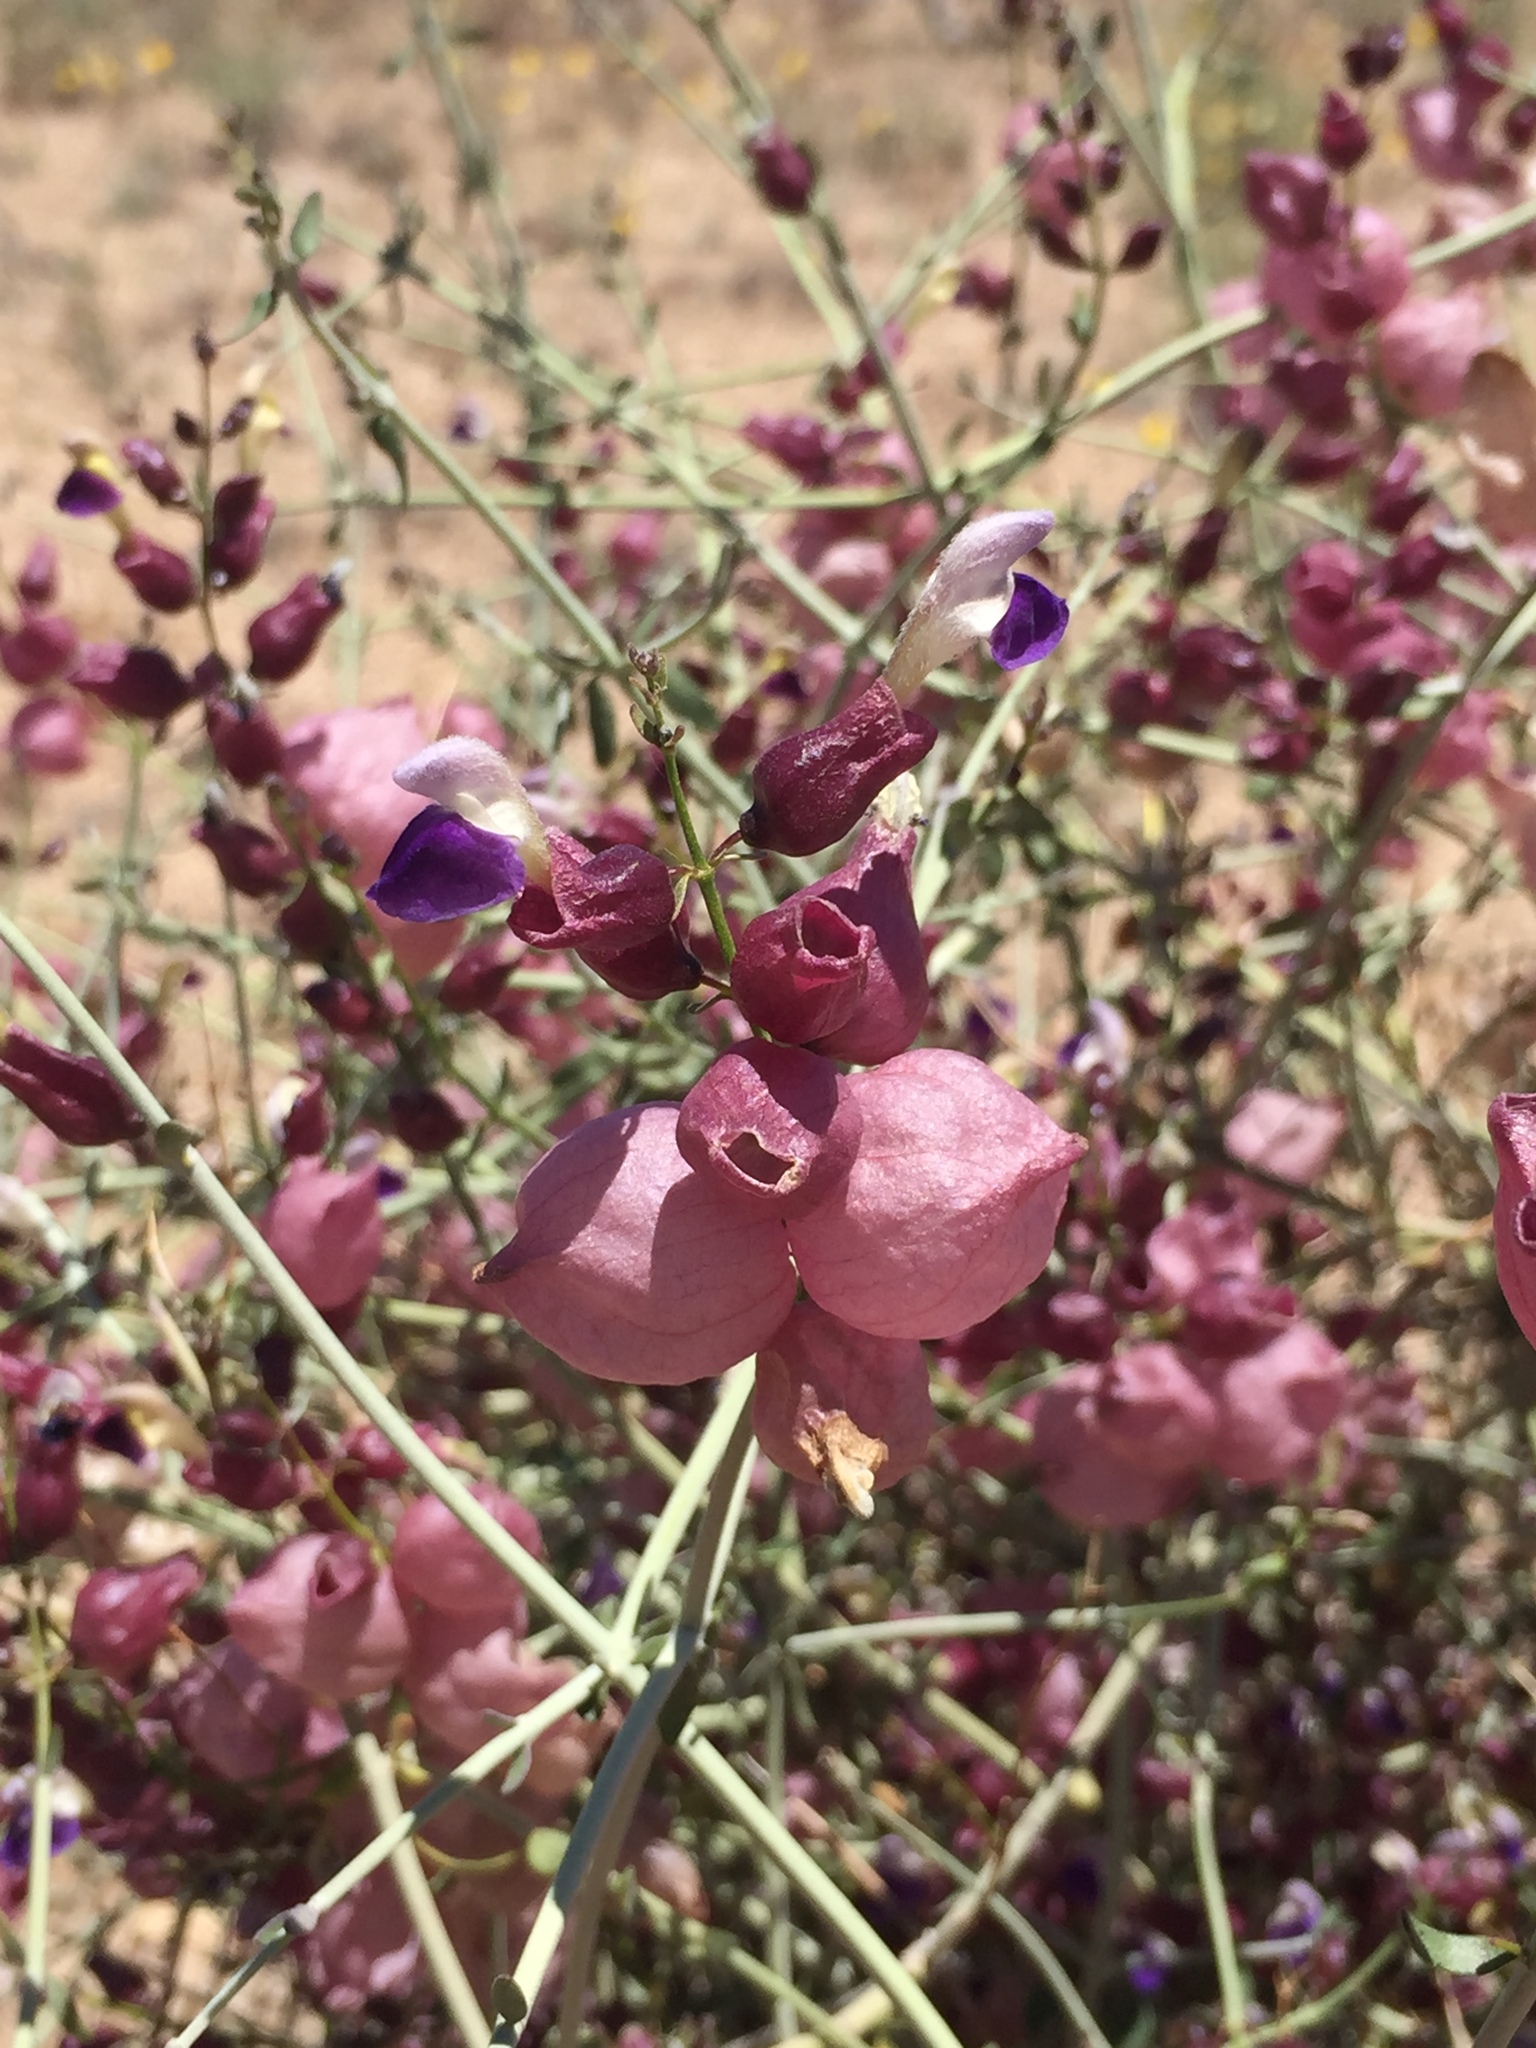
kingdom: Plantae
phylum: Tracheophyta
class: Magnoliopsida
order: Lamiales
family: Lamiaceae
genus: Scutellaria
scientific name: Scutellaria mexicana
